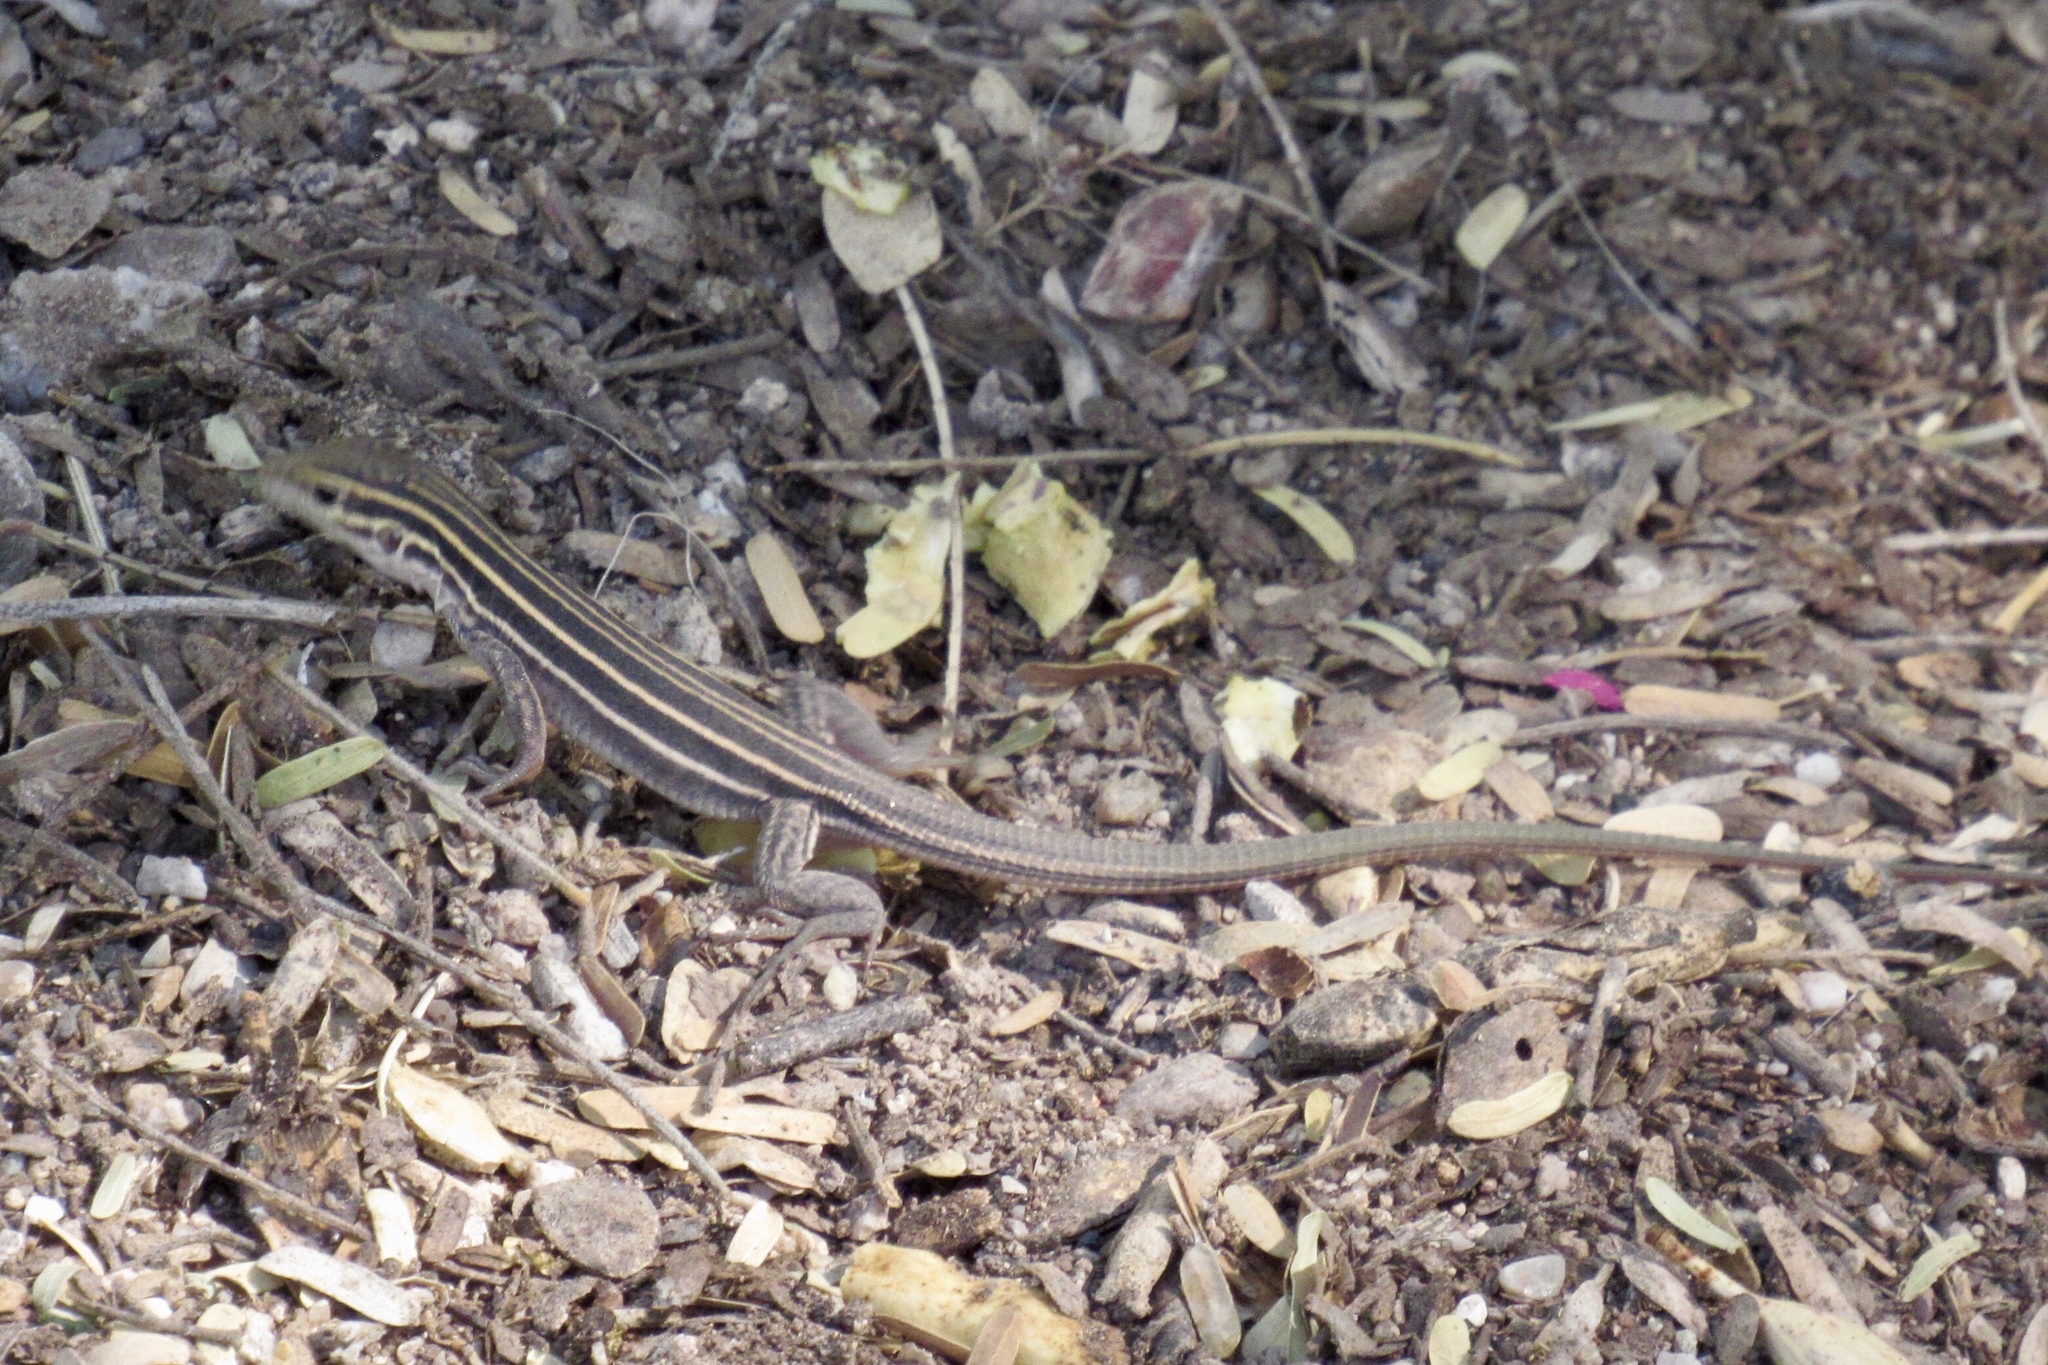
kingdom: Animalia
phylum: Chordata
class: Squamata
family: Teiidae
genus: Aspidoscelis
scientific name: Aspidoscelis uniparens
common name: Desert grassland whiptail
